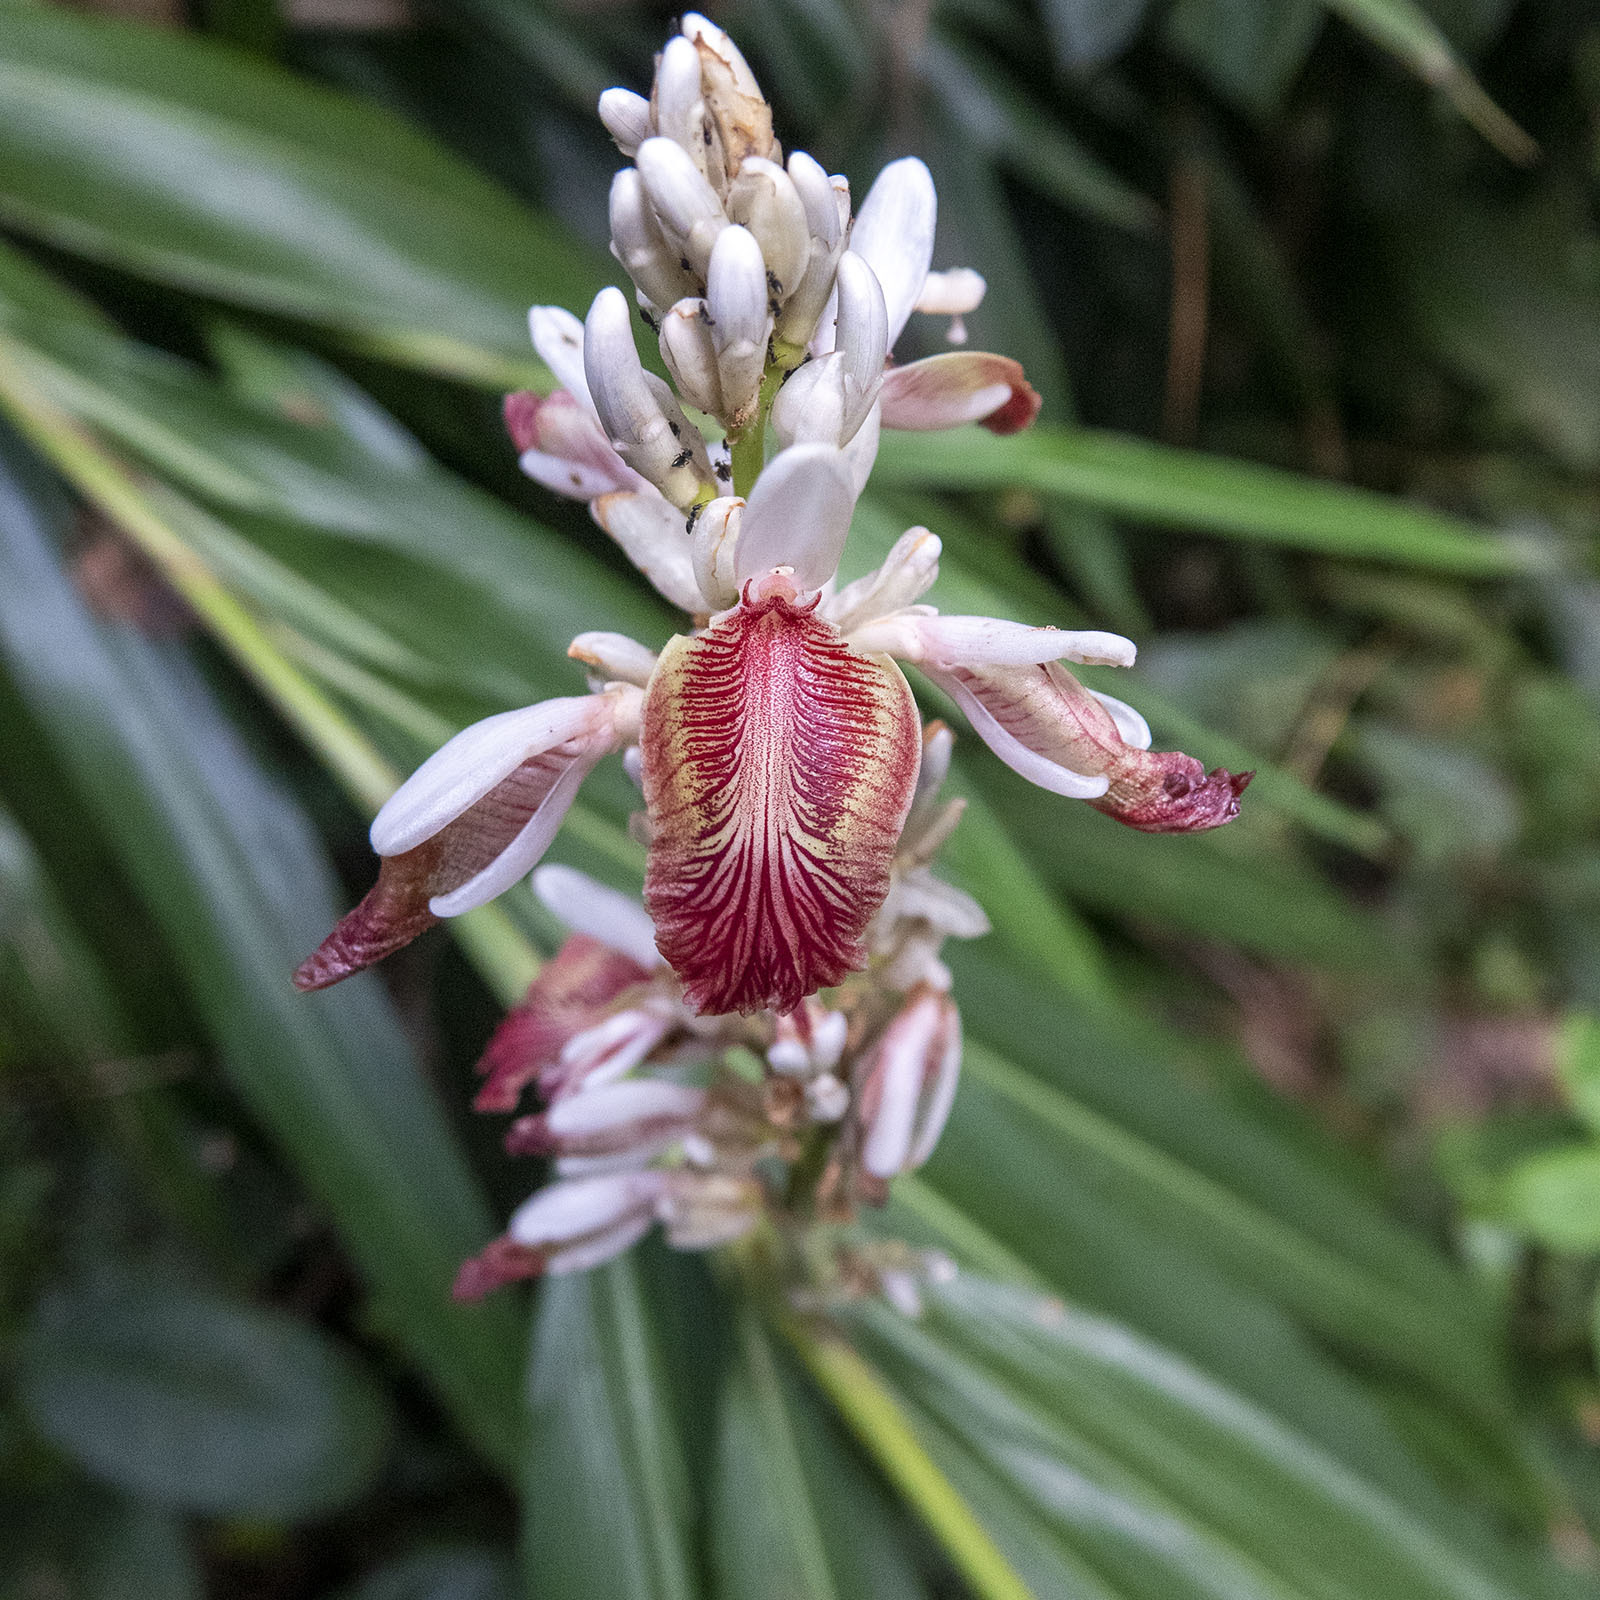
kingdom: Plantae
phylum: Tracheophyta
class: Liliopsida
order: Zingiberales
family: Zingiberaceae
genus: Alpinia
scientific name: Alpinia calcarata
